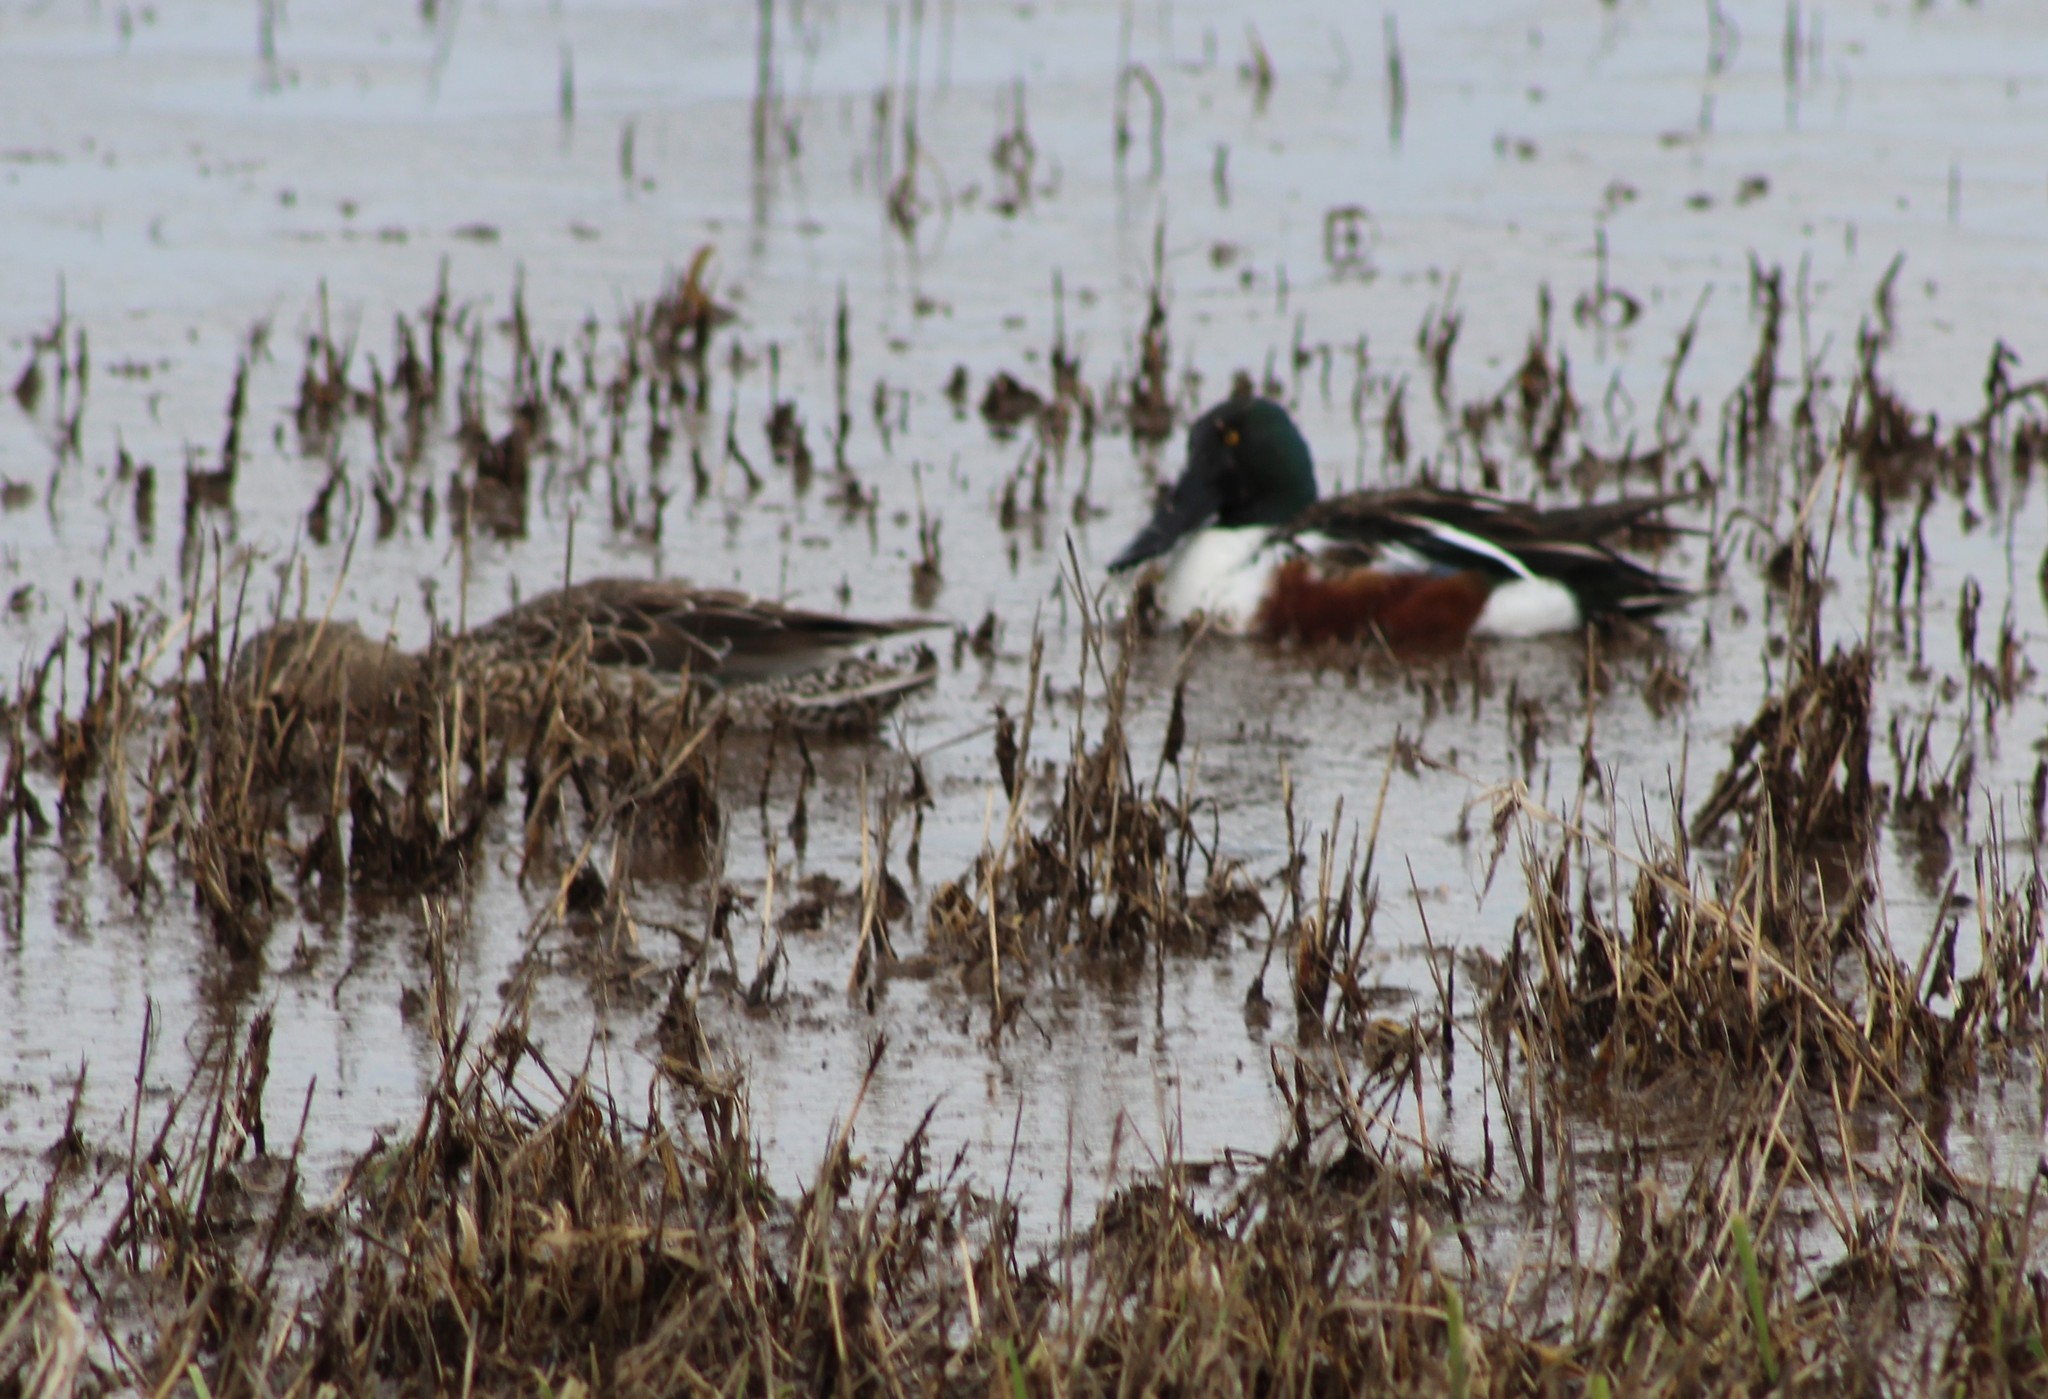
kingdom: Animalia
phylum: Chordata
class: Aves
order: Anseriformes
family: Anatidae
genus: Spatula
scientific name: Spatula clypeata
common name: Northern shoveler
